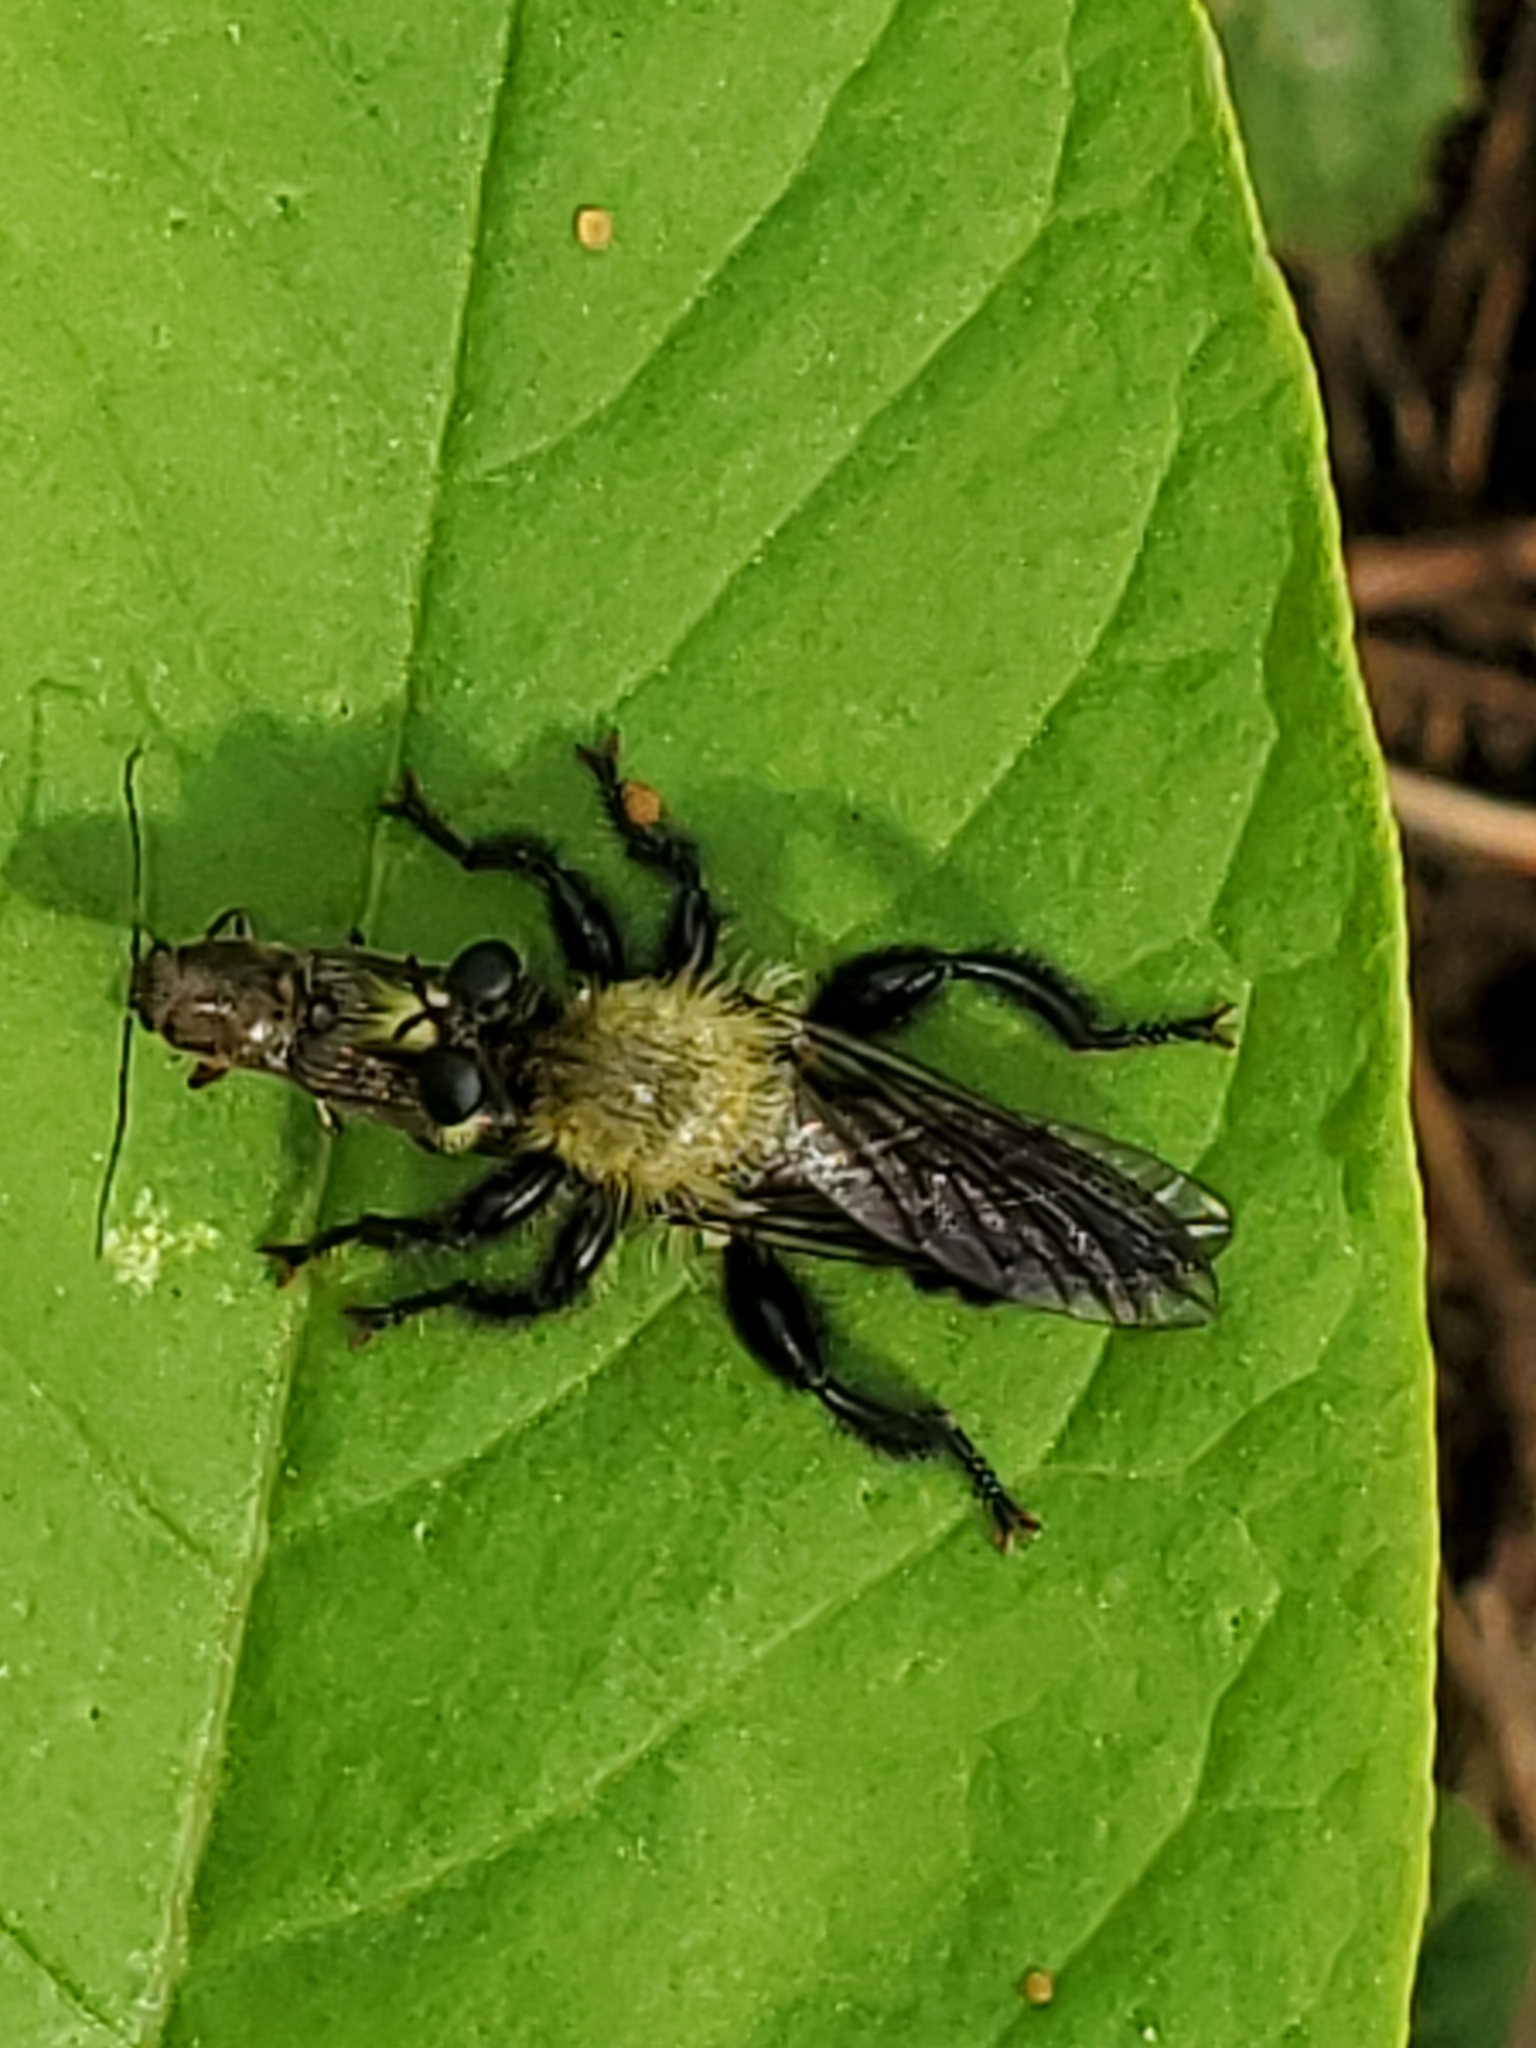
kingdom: Animalia
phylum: Arthropoda
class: Insecta
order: Diptera
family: Asilidae
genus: Laphria
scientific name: Laphria flavicollis
